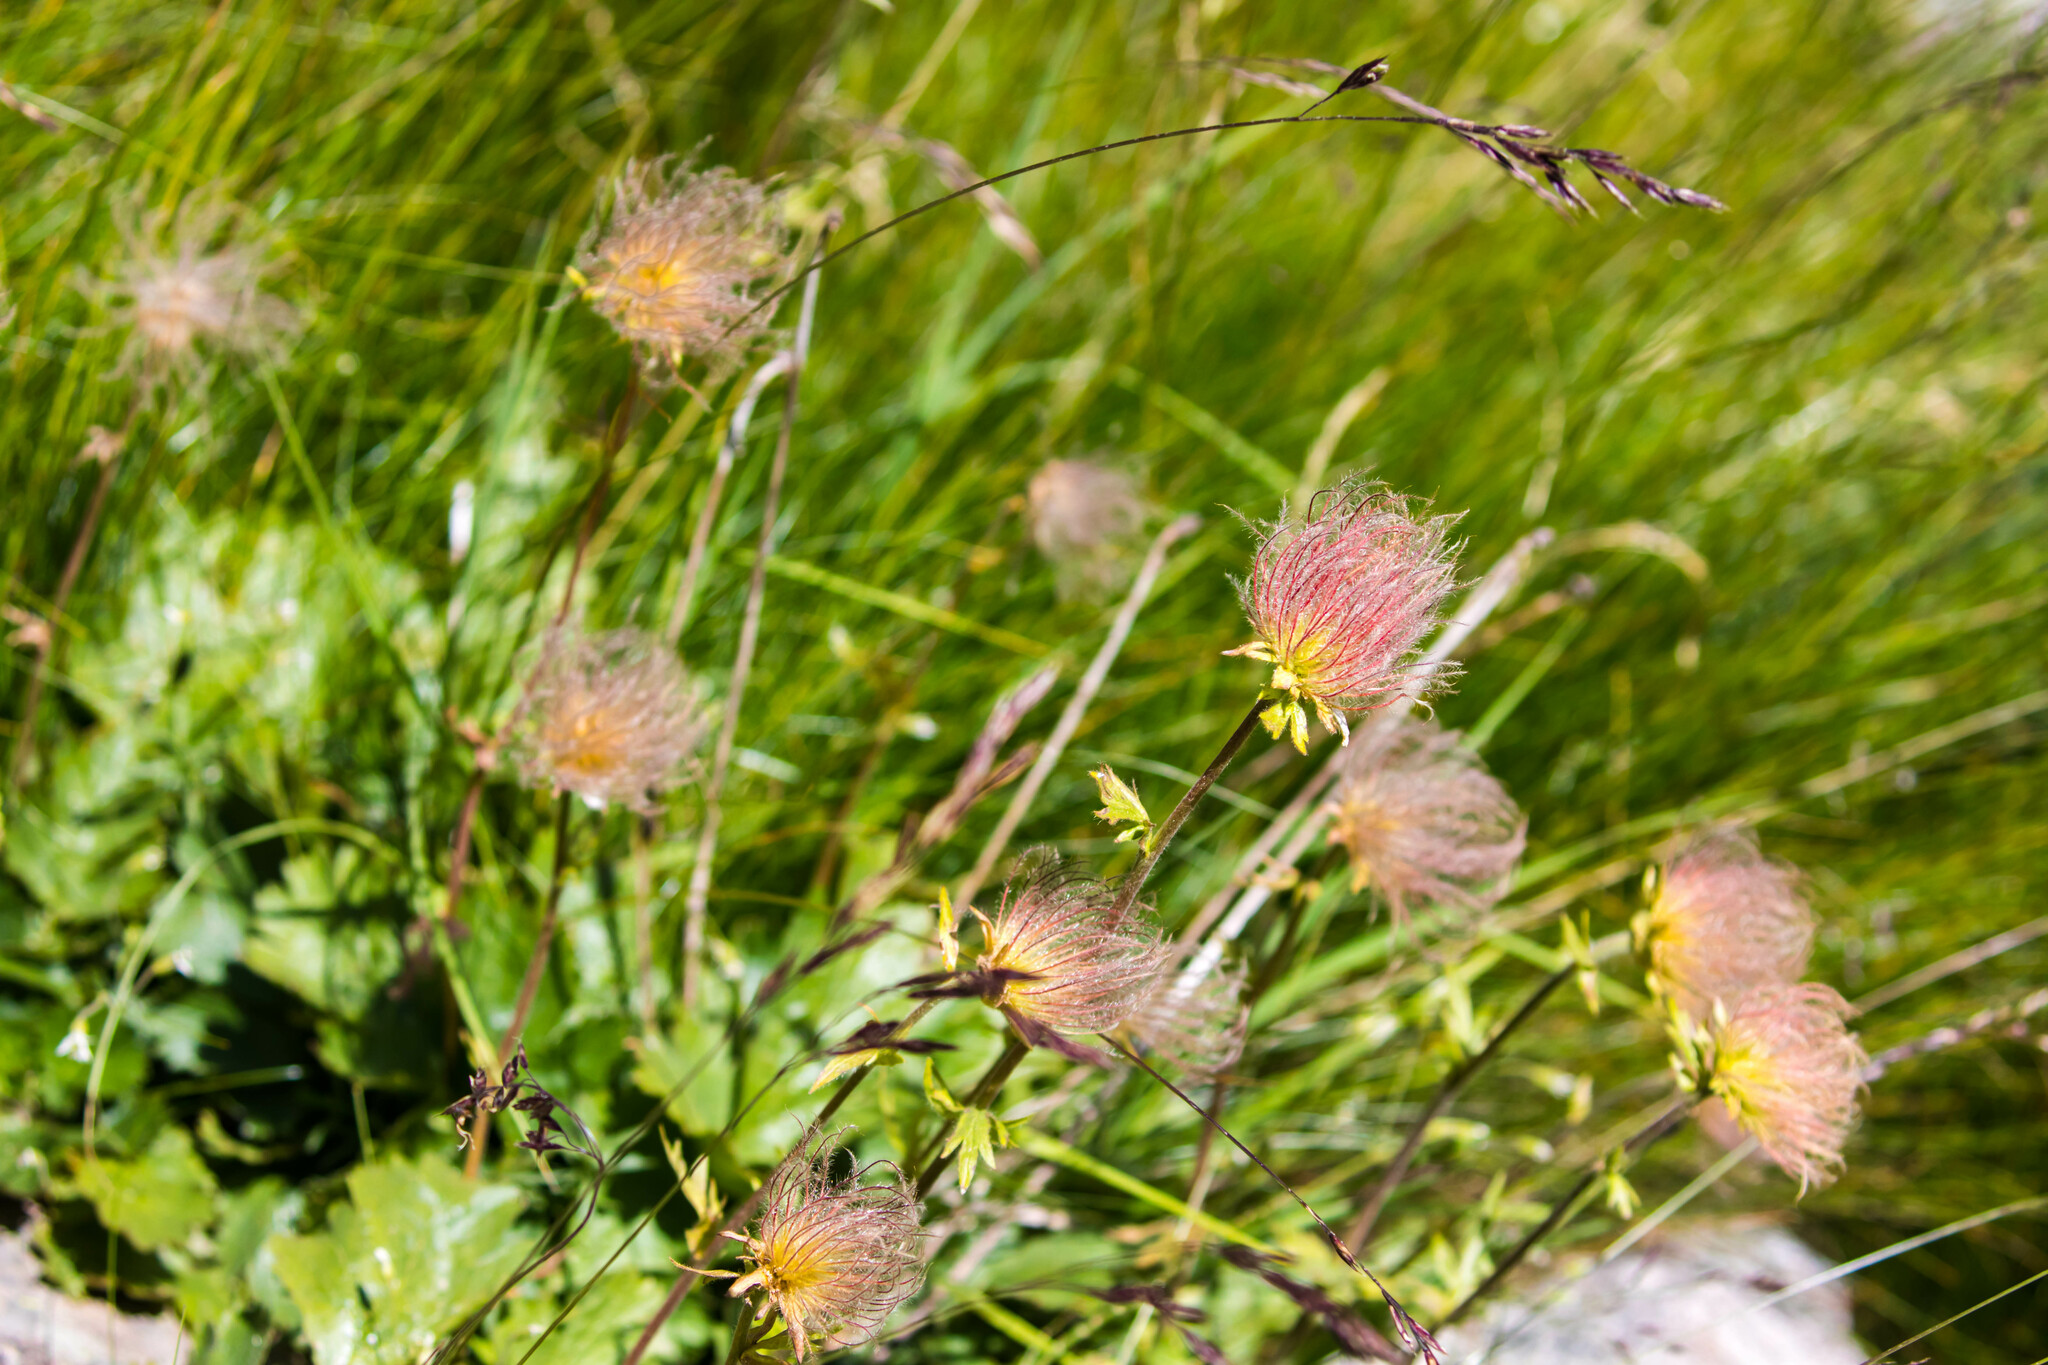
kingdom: Plantae
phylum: Tracheophyta
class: Magnoliopsida
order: Rosales
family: Rosaceae
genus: Geum
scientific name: Geum montanum
